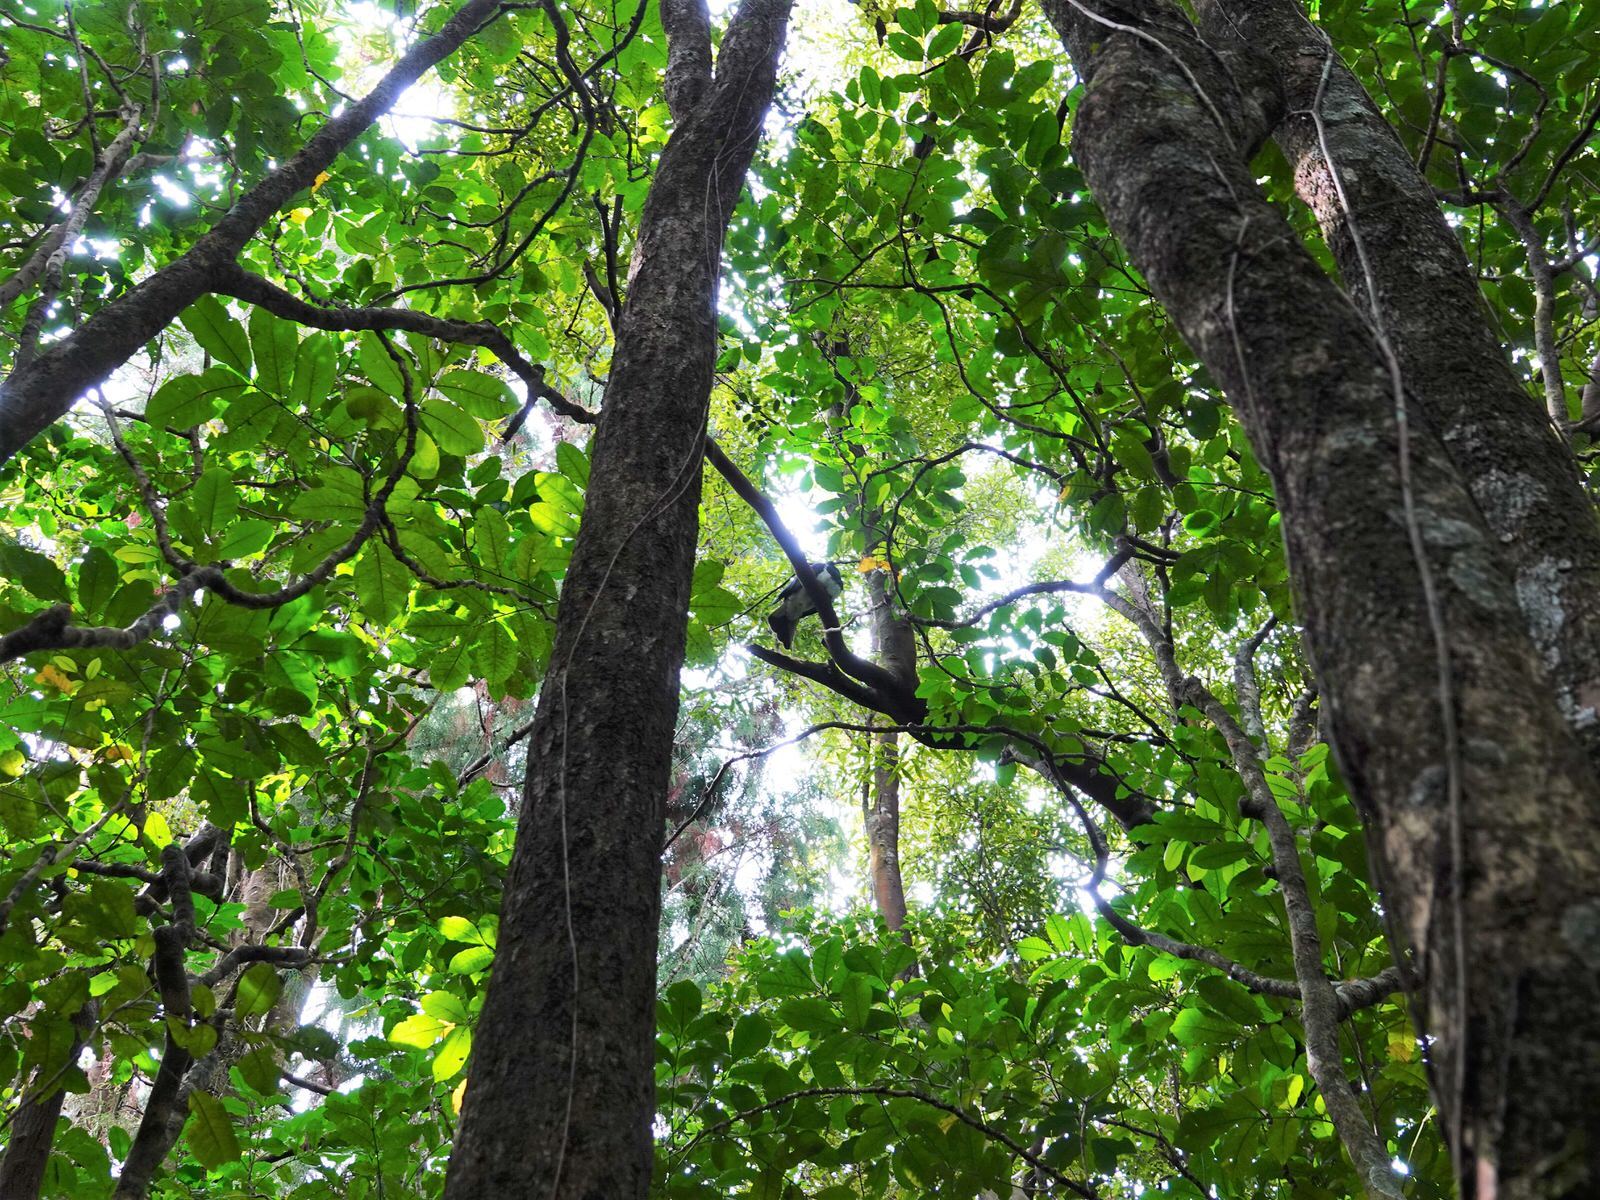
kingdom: Animalia
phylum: Chordata
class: Aves
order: Columbiformes
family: Columbidae
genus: Hemiphaga
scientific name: Hemiphaga novaeseelandiae
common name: New zealand pigeon
